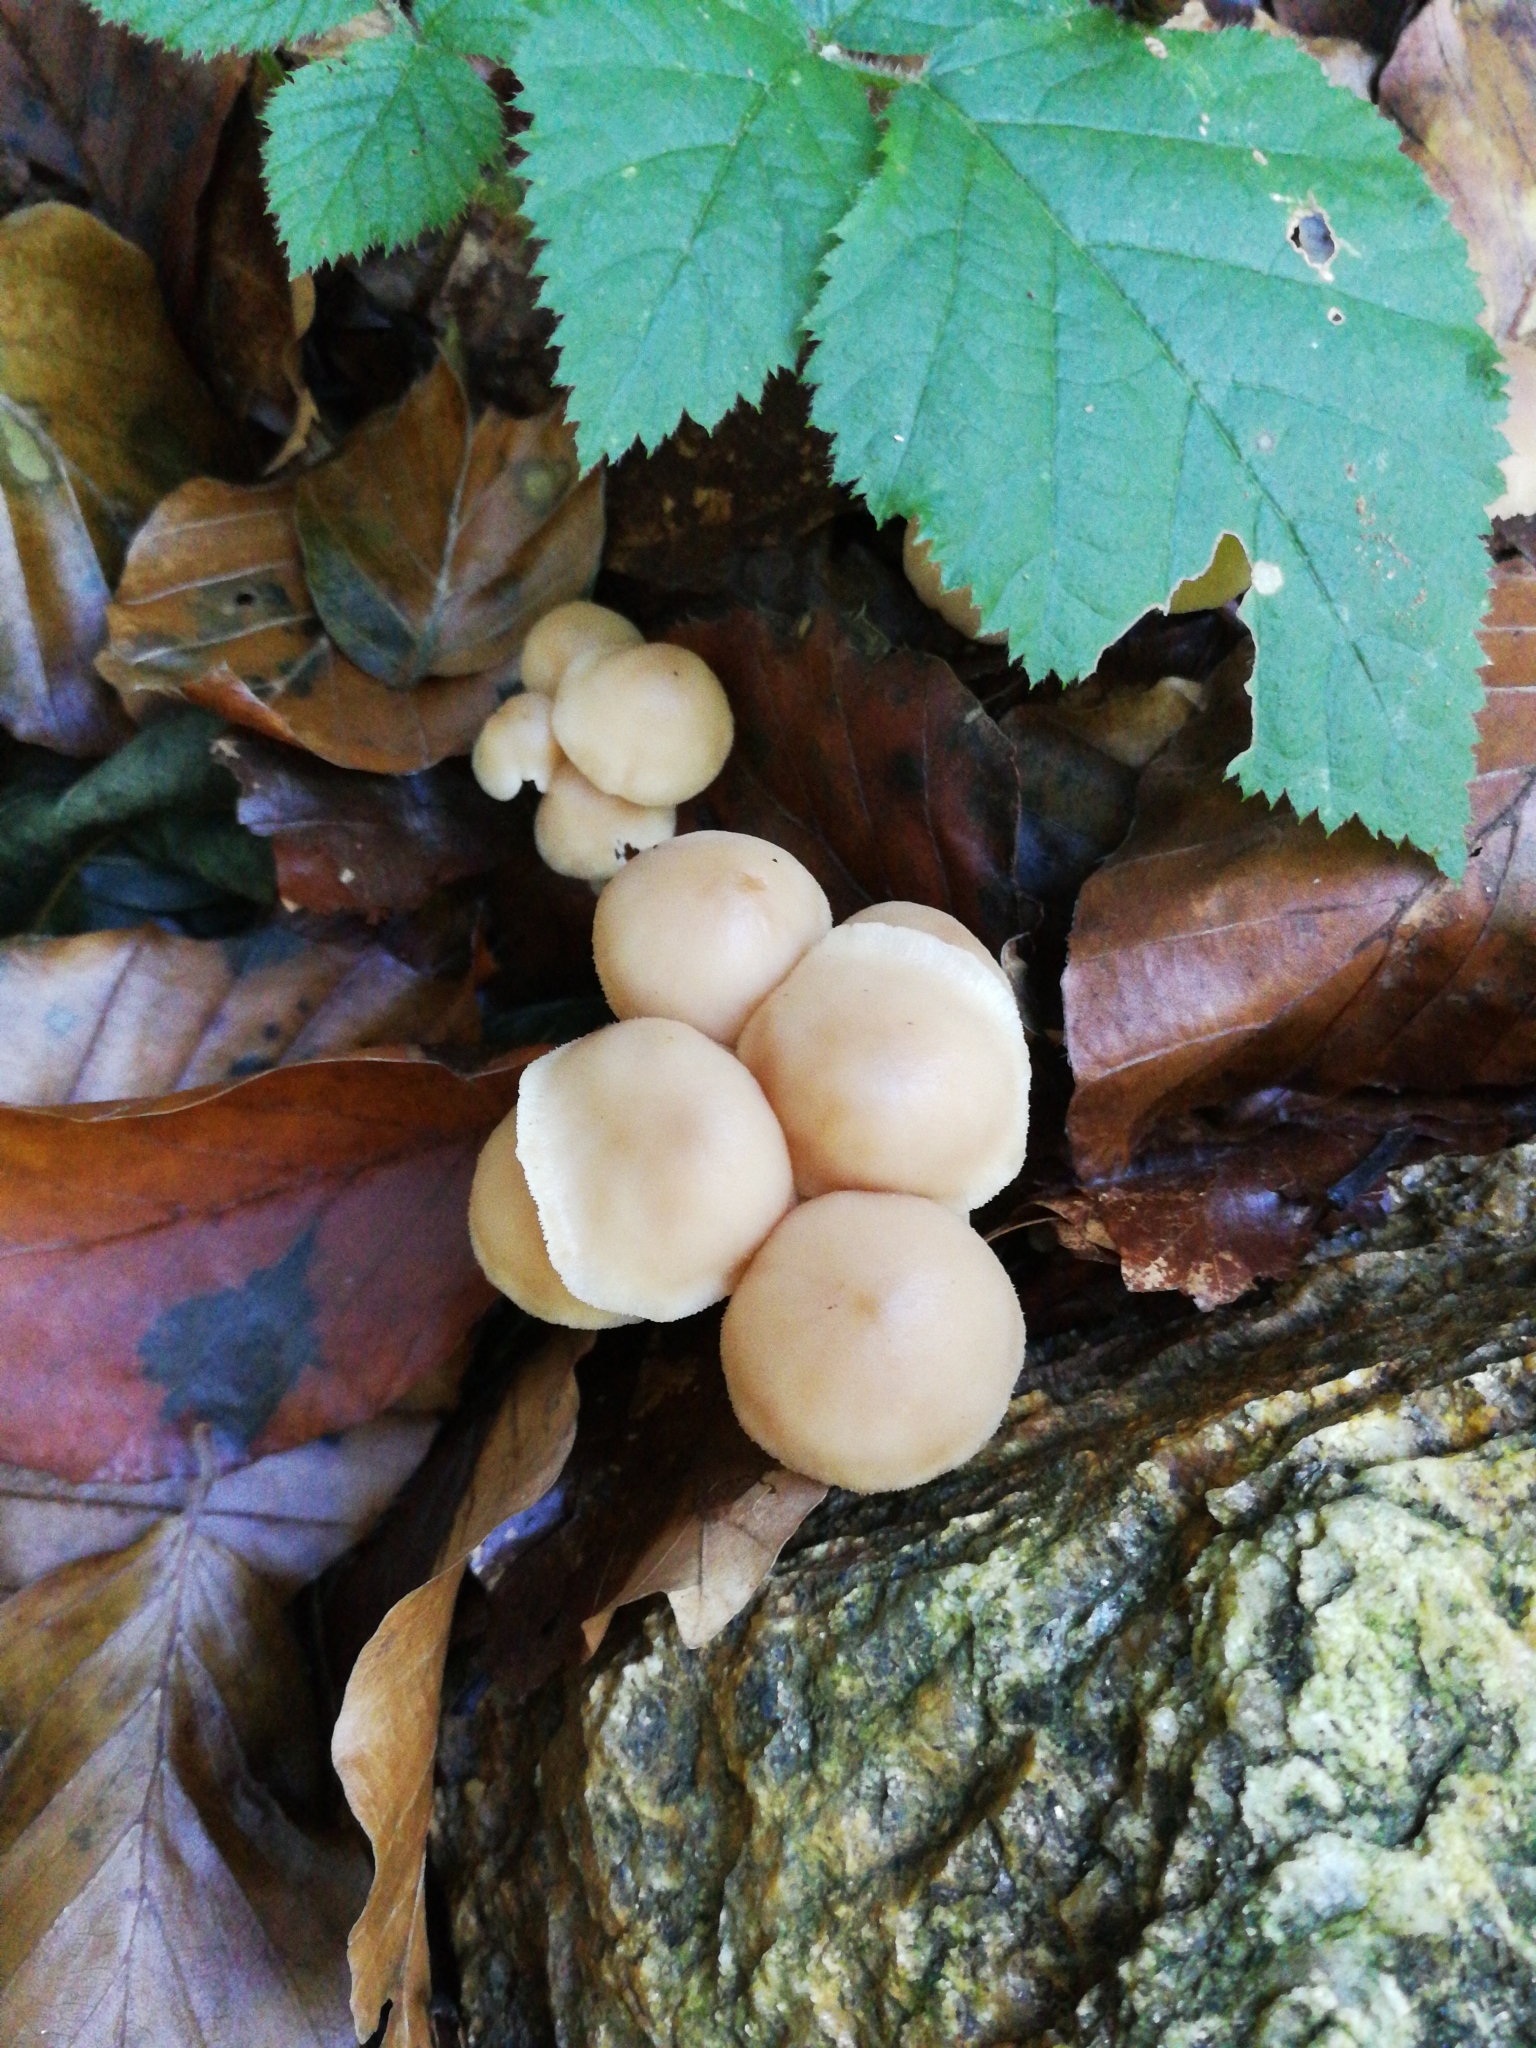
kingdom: Fungi
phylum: Basidiomycota
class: Agaricomycetes
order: Agaricales
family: Omphalotaceae
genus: Collybiopsis
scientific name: Collybiopsis confluens
